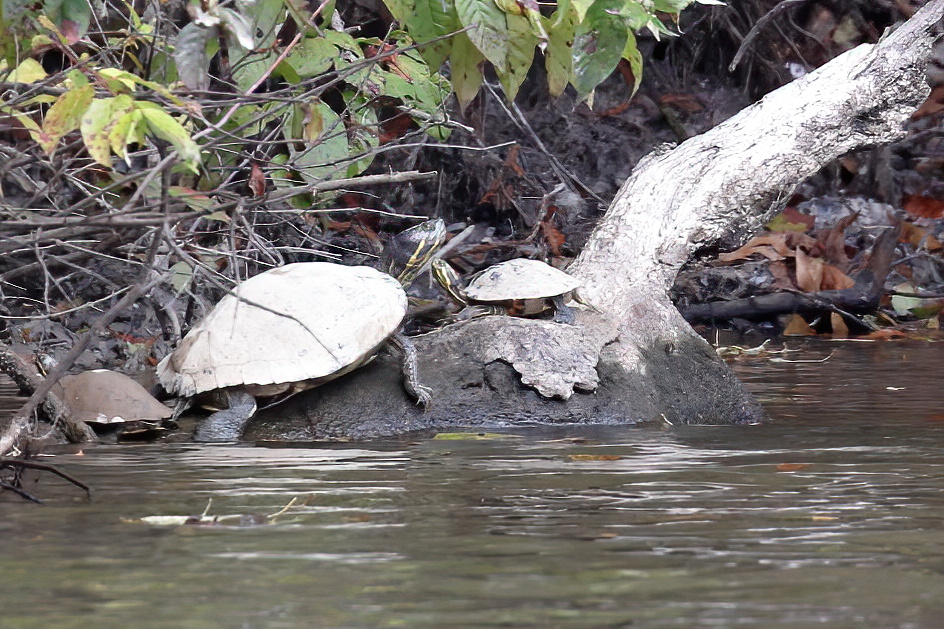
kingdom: Animalia
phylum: Chordata
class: Testudines
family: Emydidae
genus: Pseudemys
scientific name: Pseudemys concinna
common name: Eastern river cooter
